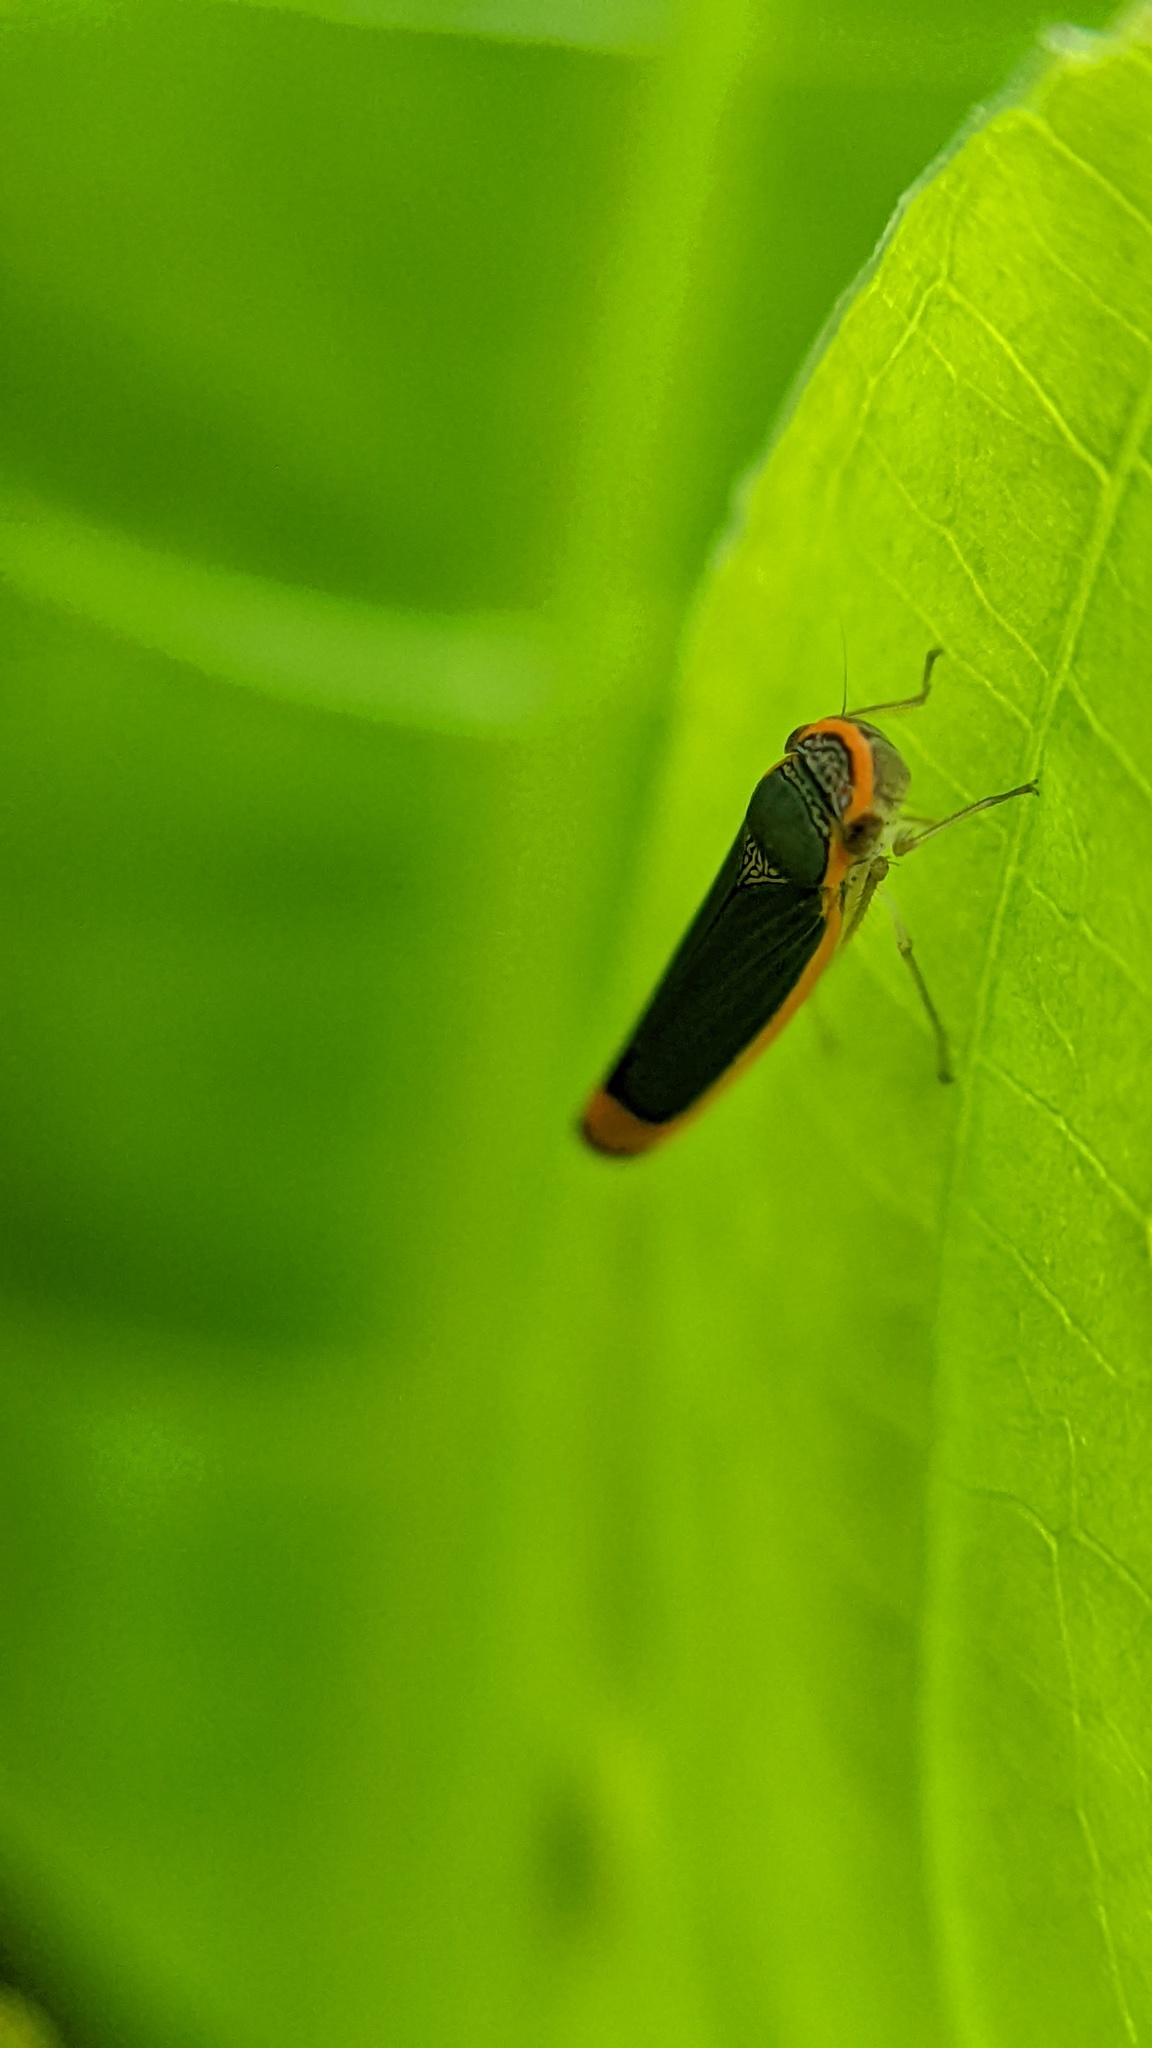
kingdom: Animalia
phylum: Arthropoda
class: Insecta
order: Hemiptera
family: Cicadellidae
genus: Stephanolla
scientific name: Stephanolla rufoapicata
